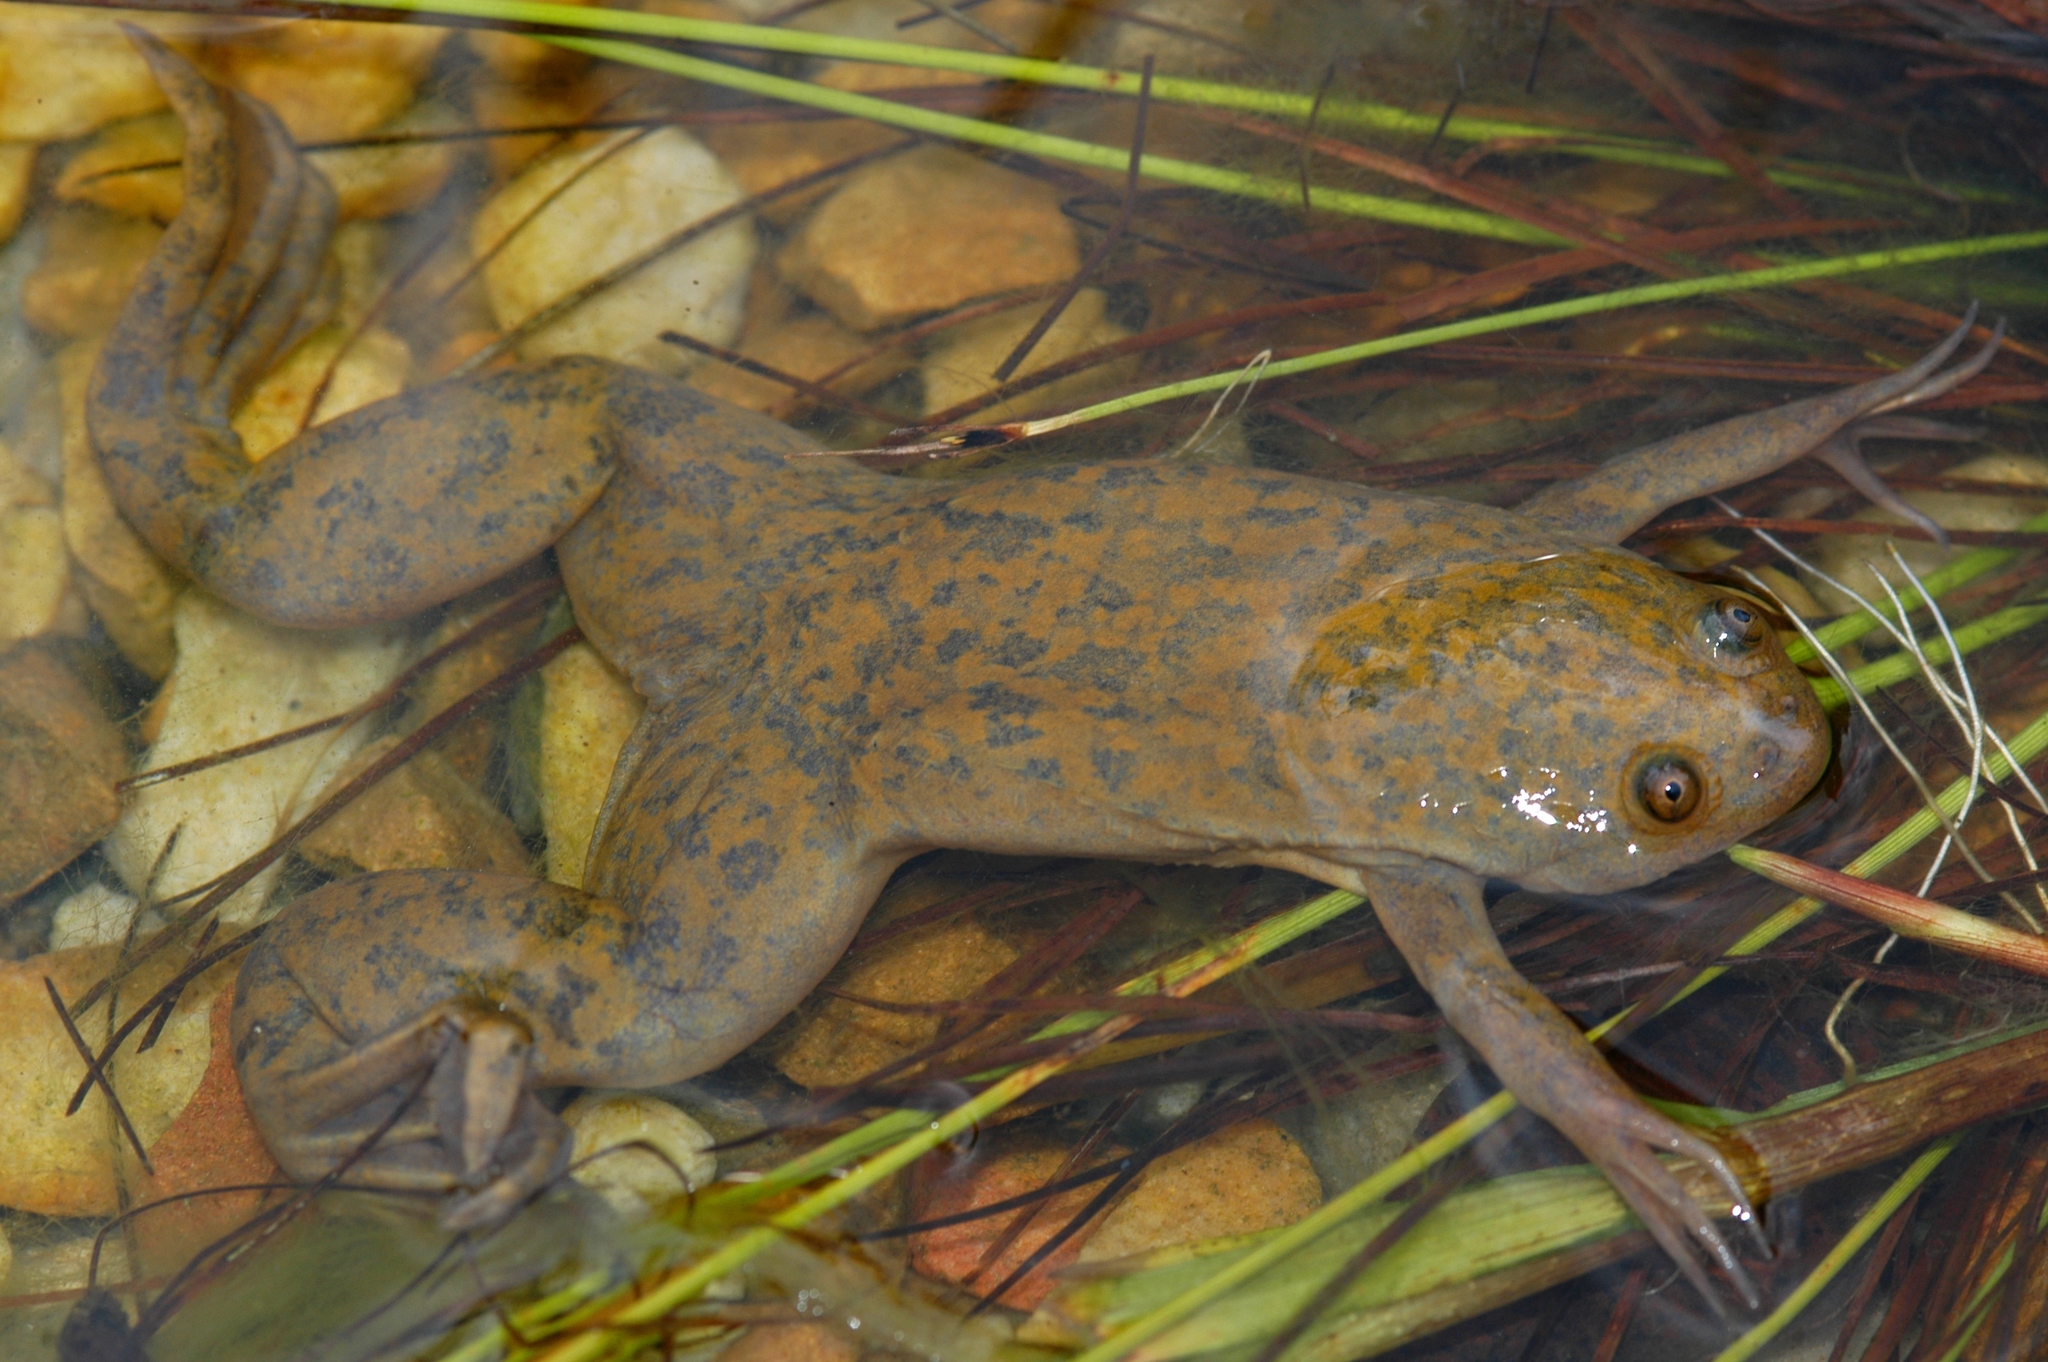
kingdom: Animalia
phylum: Chordata
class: Amphibia
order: Anura
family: Pipidae
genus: Xenopus
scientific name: Xenopus laevis
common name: African clawed frog
